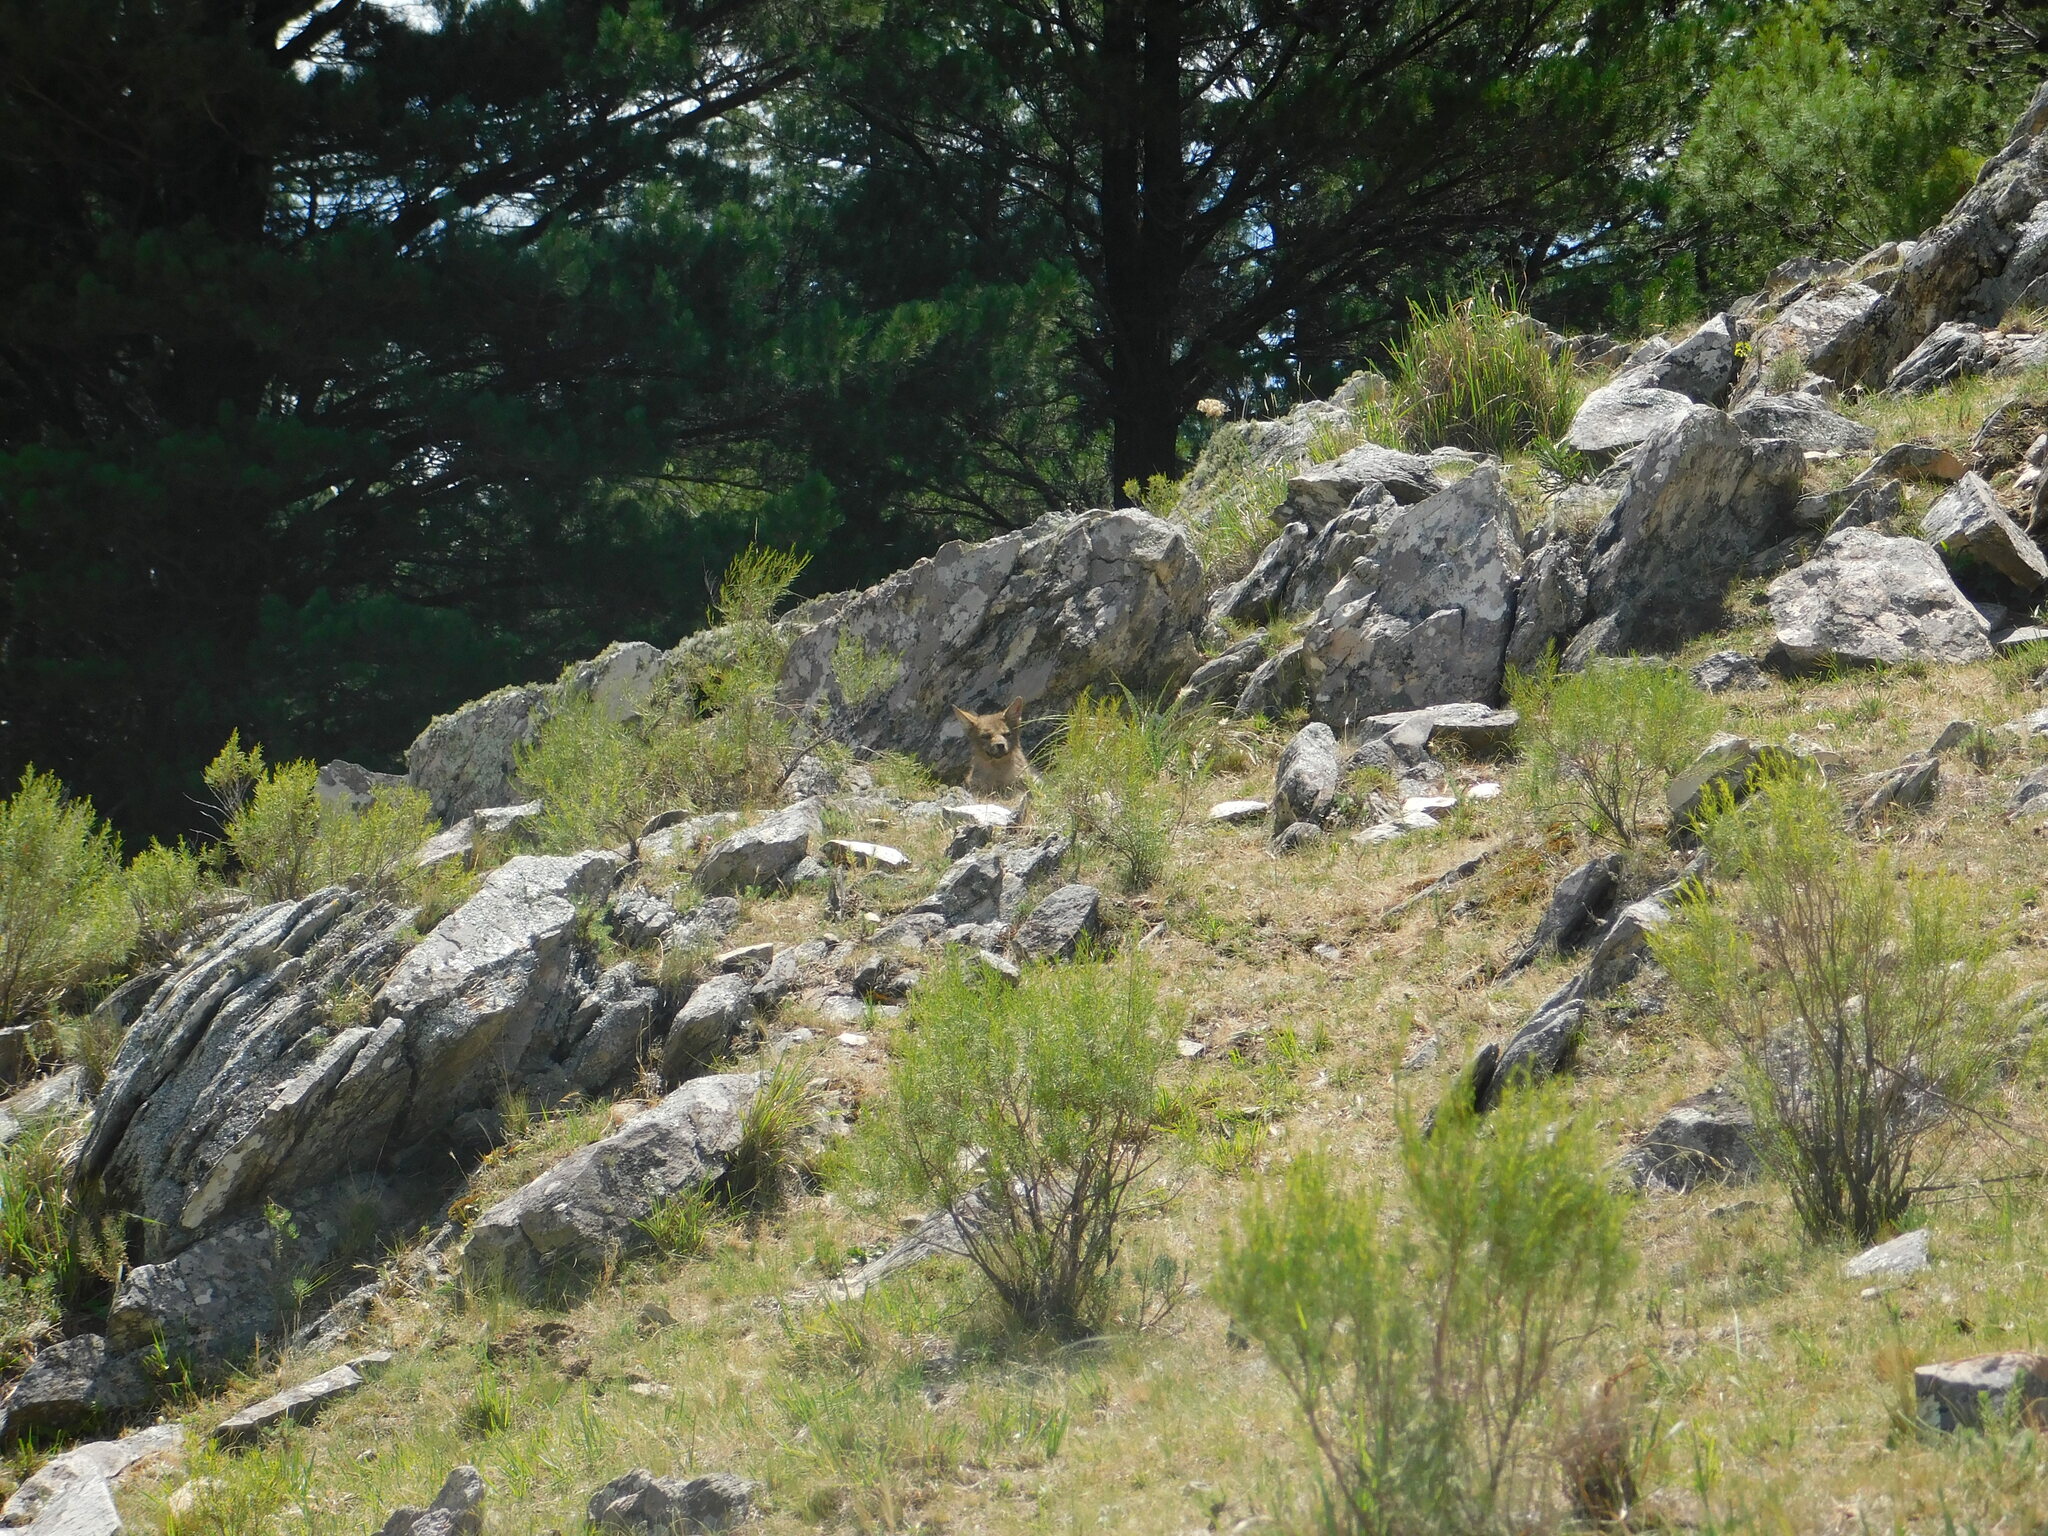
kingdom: Animalia
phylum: Chordata
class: Mammalia
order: Carnivora
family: Canidae
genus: Lycalopex
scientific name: Lycalopex gymnocercus
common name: Pampas fox
